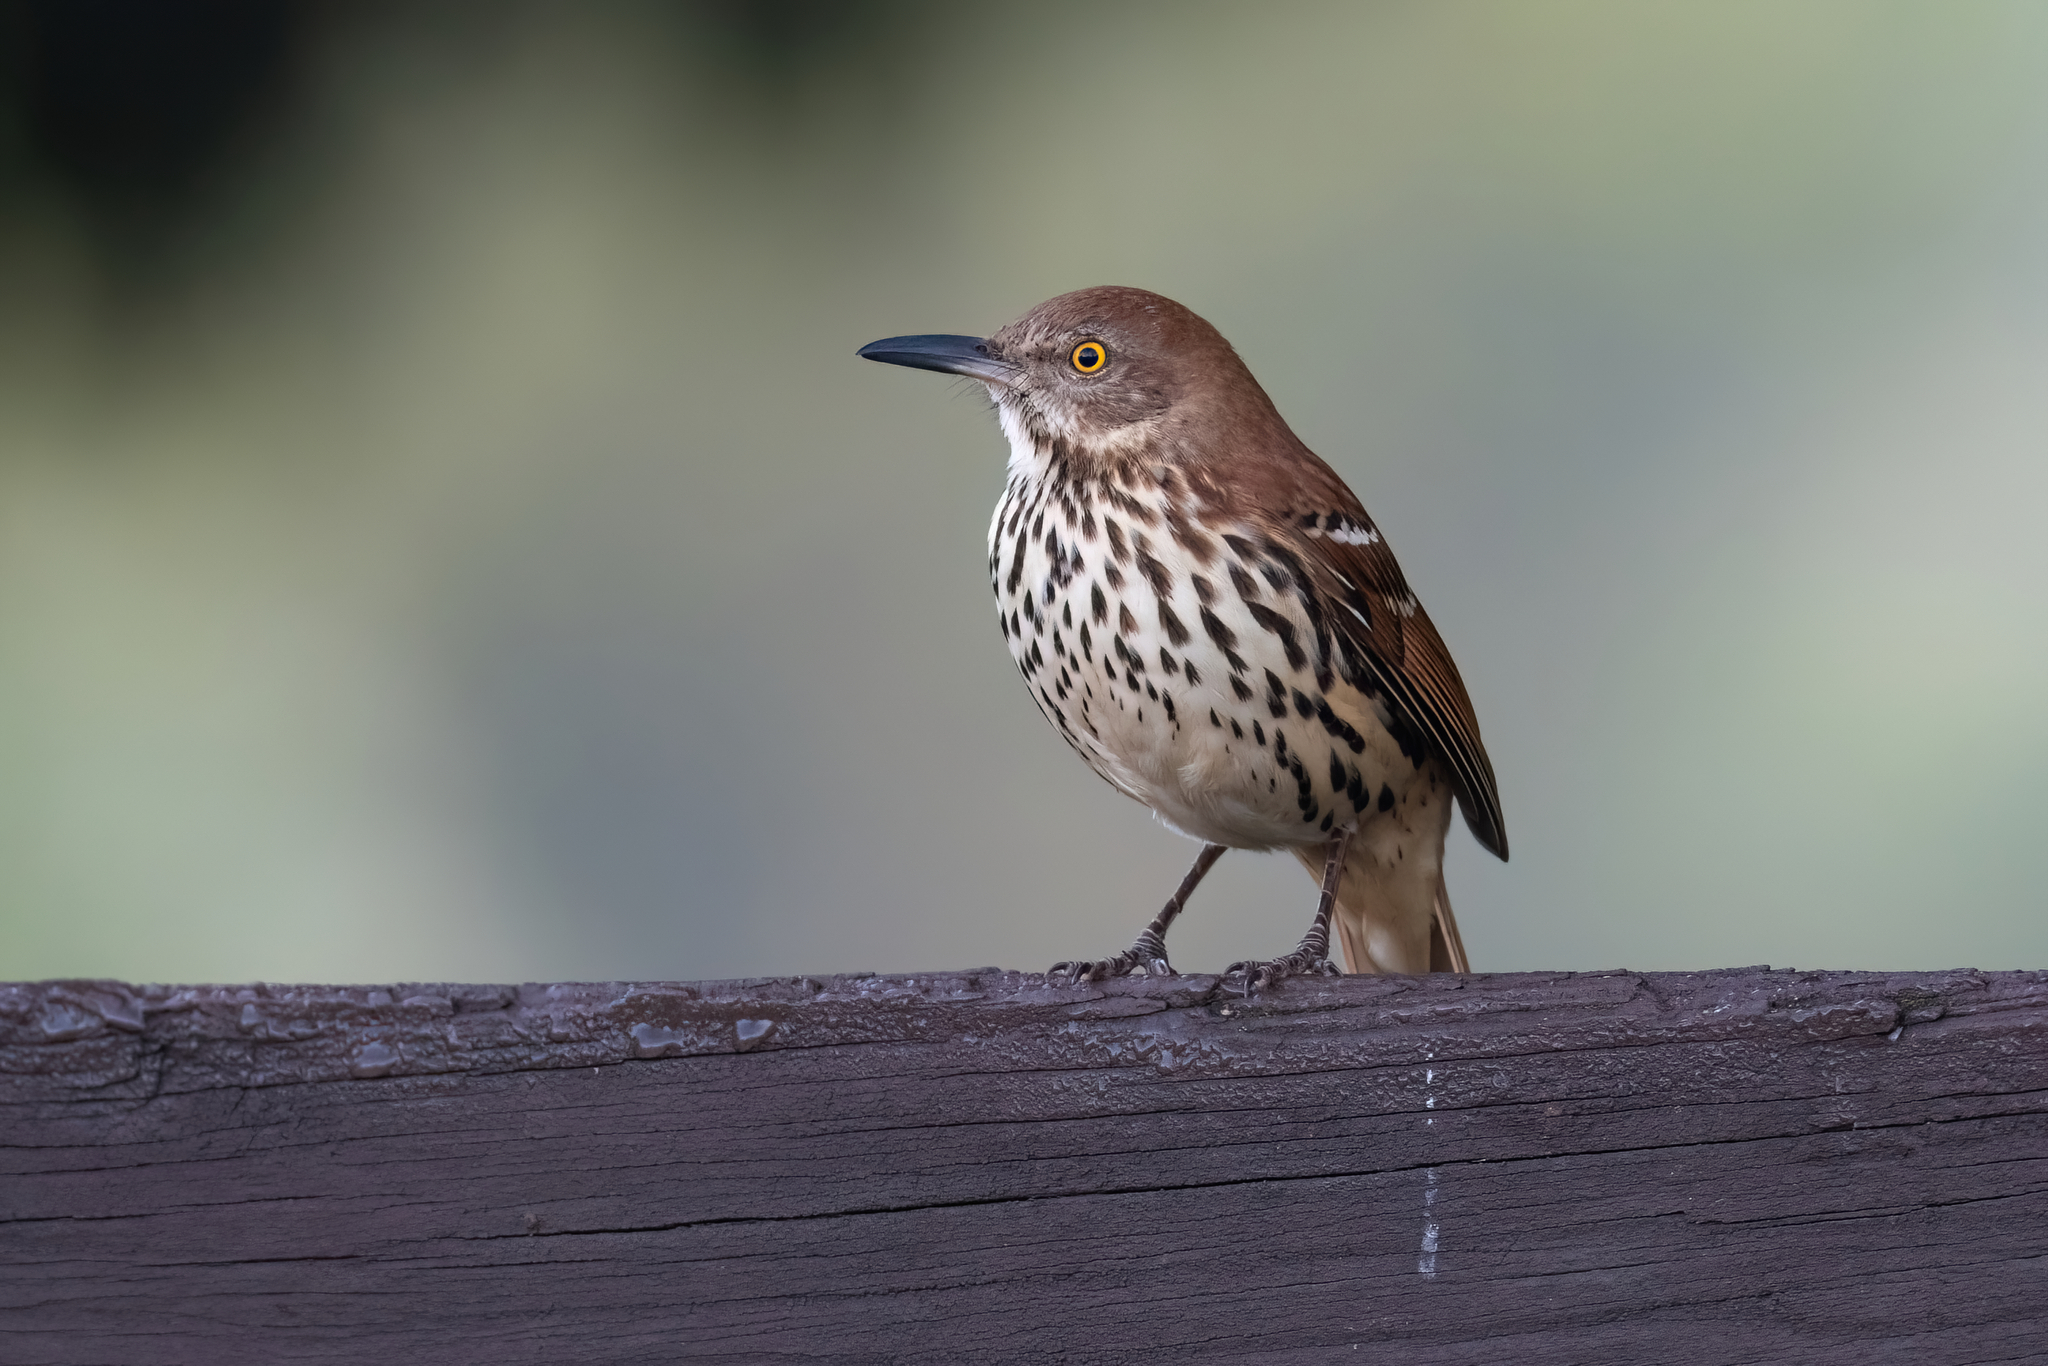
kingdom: Animalia
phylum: Chordata
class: Aves
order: Passeriformes
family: Mimidae
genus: Toxostoma
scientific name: Toxostoma rufum
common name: Brown thrasher
